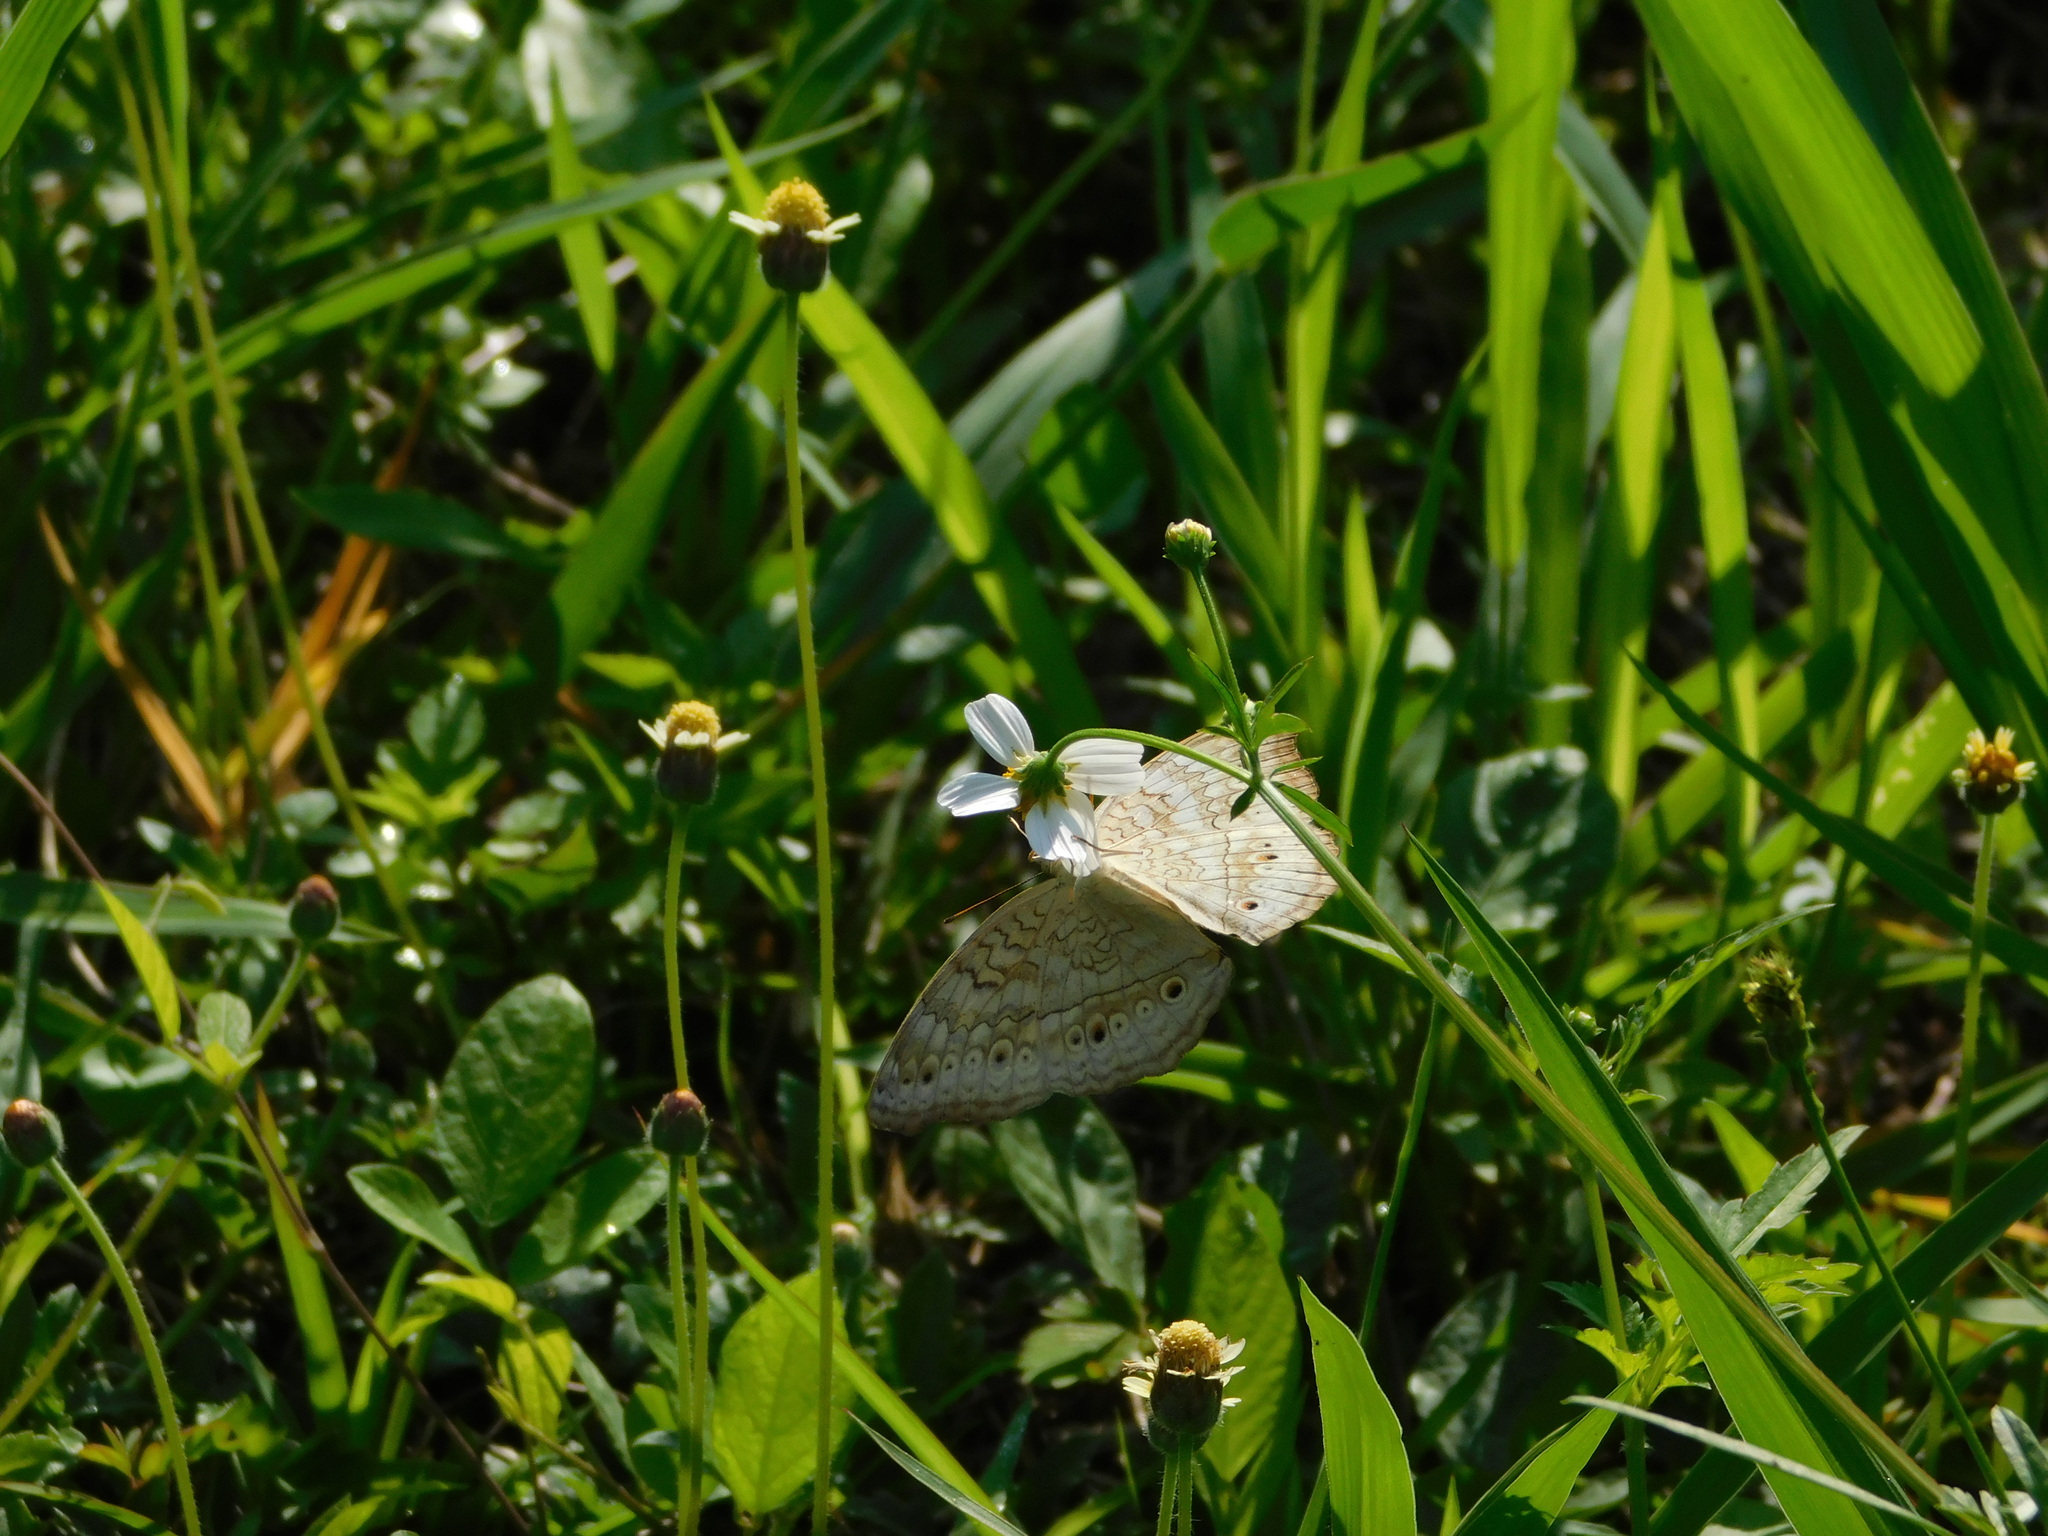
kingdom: Animalia
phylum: Arthropoda
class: Insecta
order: Lepidoptera
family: Nymphalidae
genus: Junonia
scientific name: Junonia atlites
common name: Grey pansy
